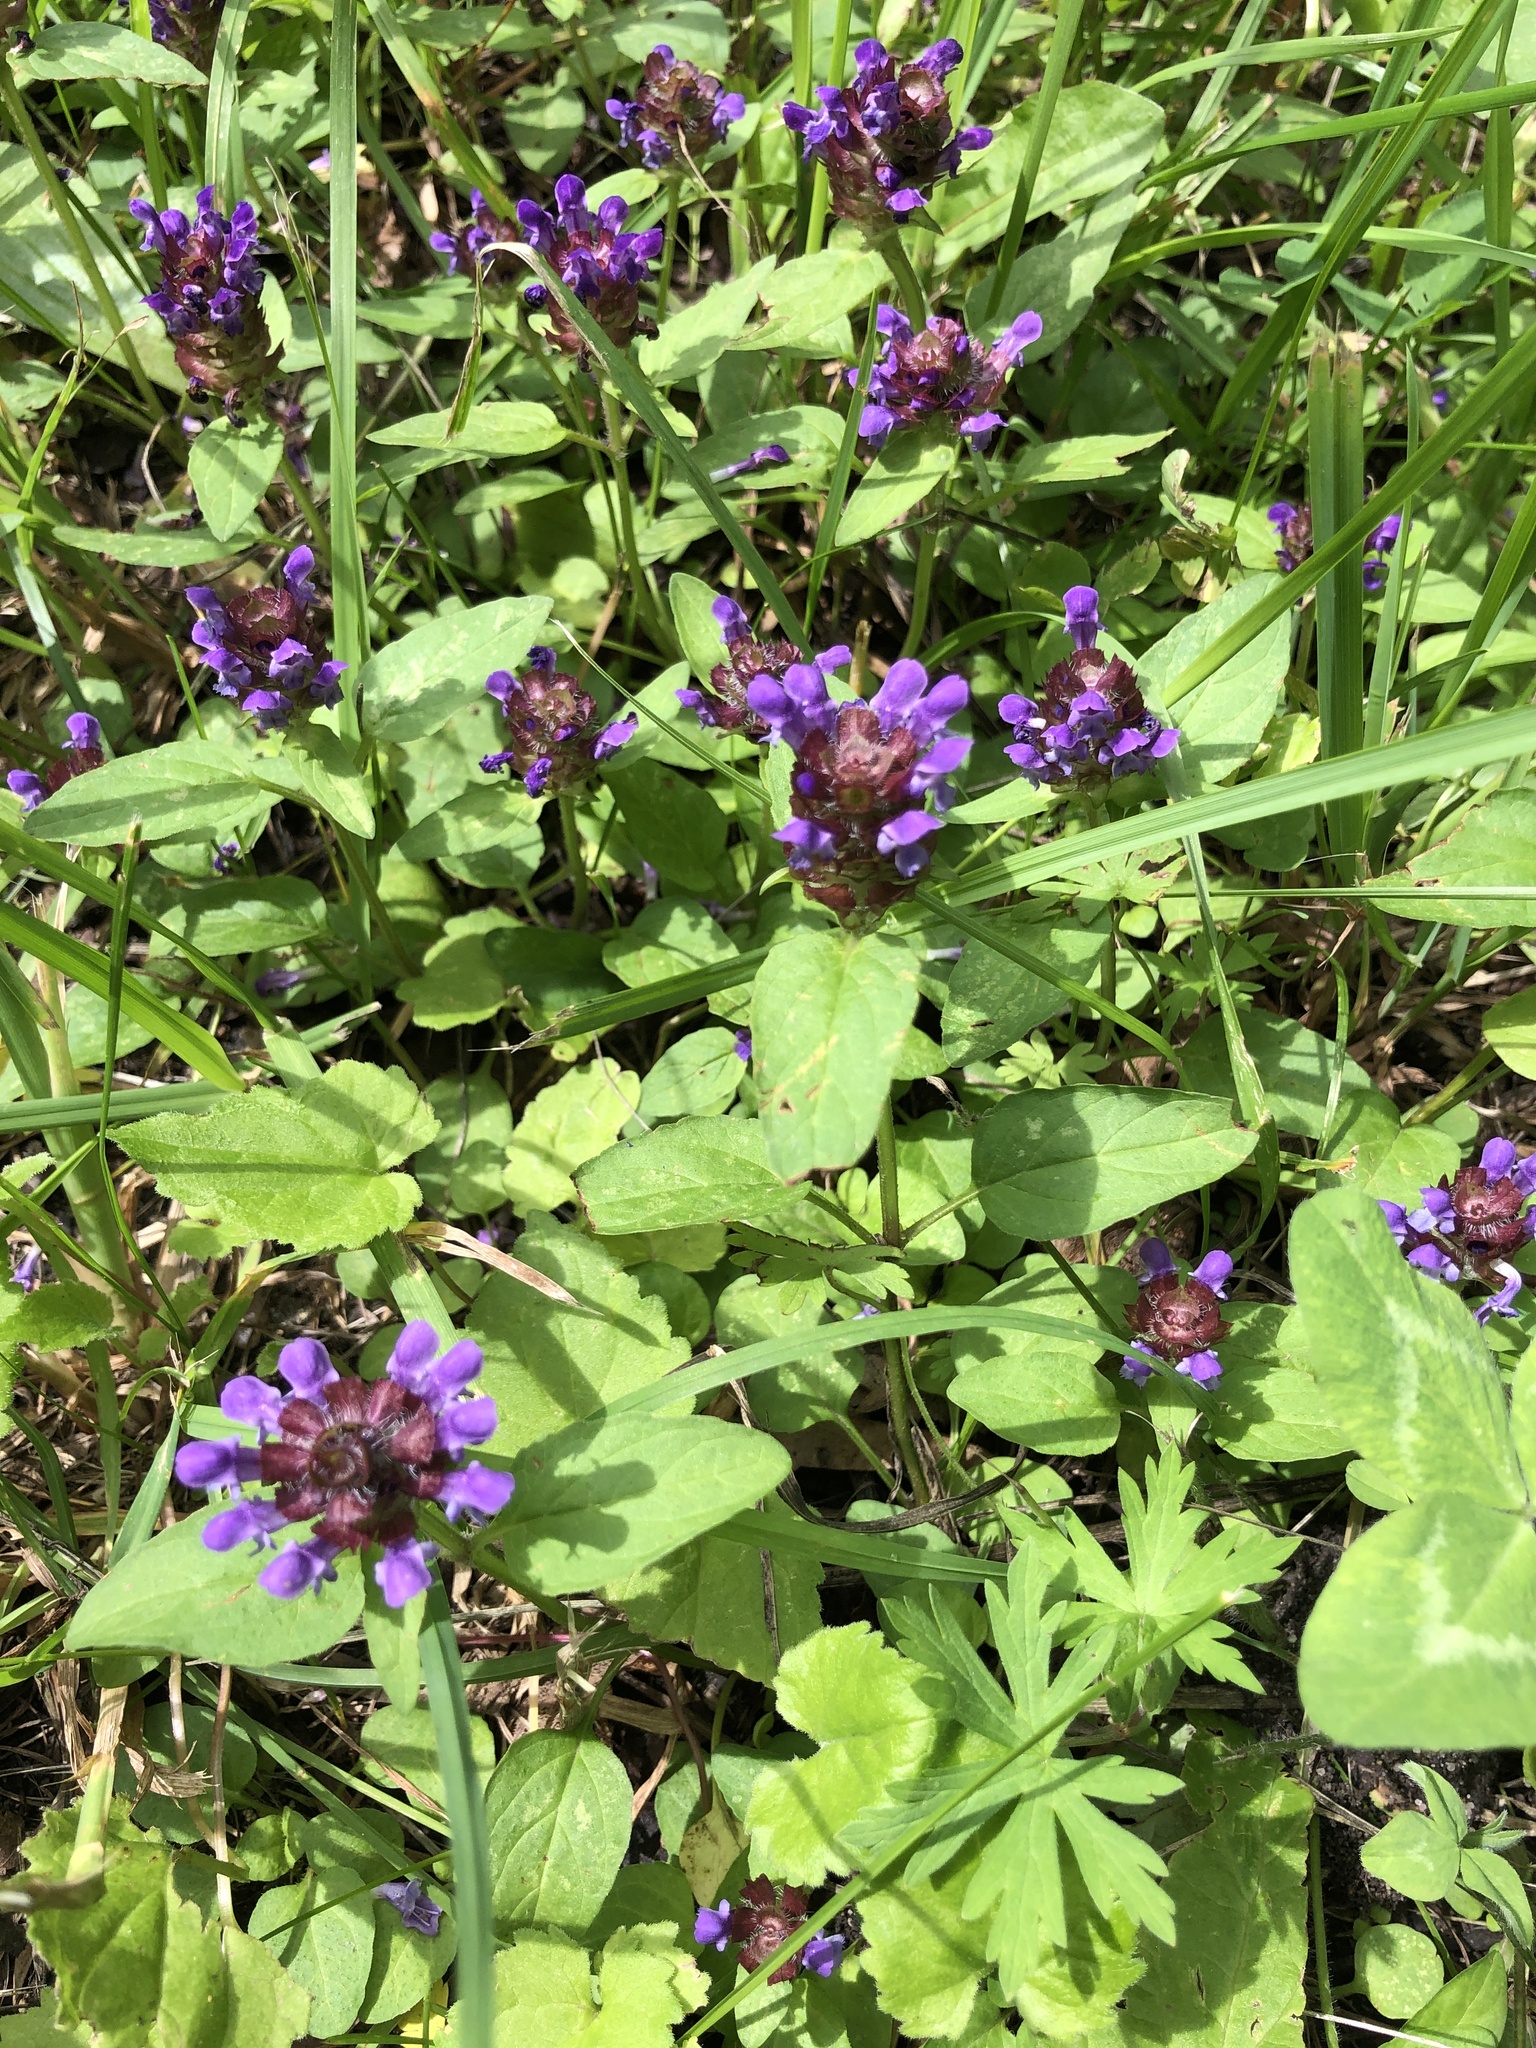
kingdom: Plantae
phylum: Tracheophyta
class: Magnoliopsida
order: Lamiales
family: Lamiaceae
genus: Prunella
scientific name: Prunella vulgaris
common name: Heal-all
